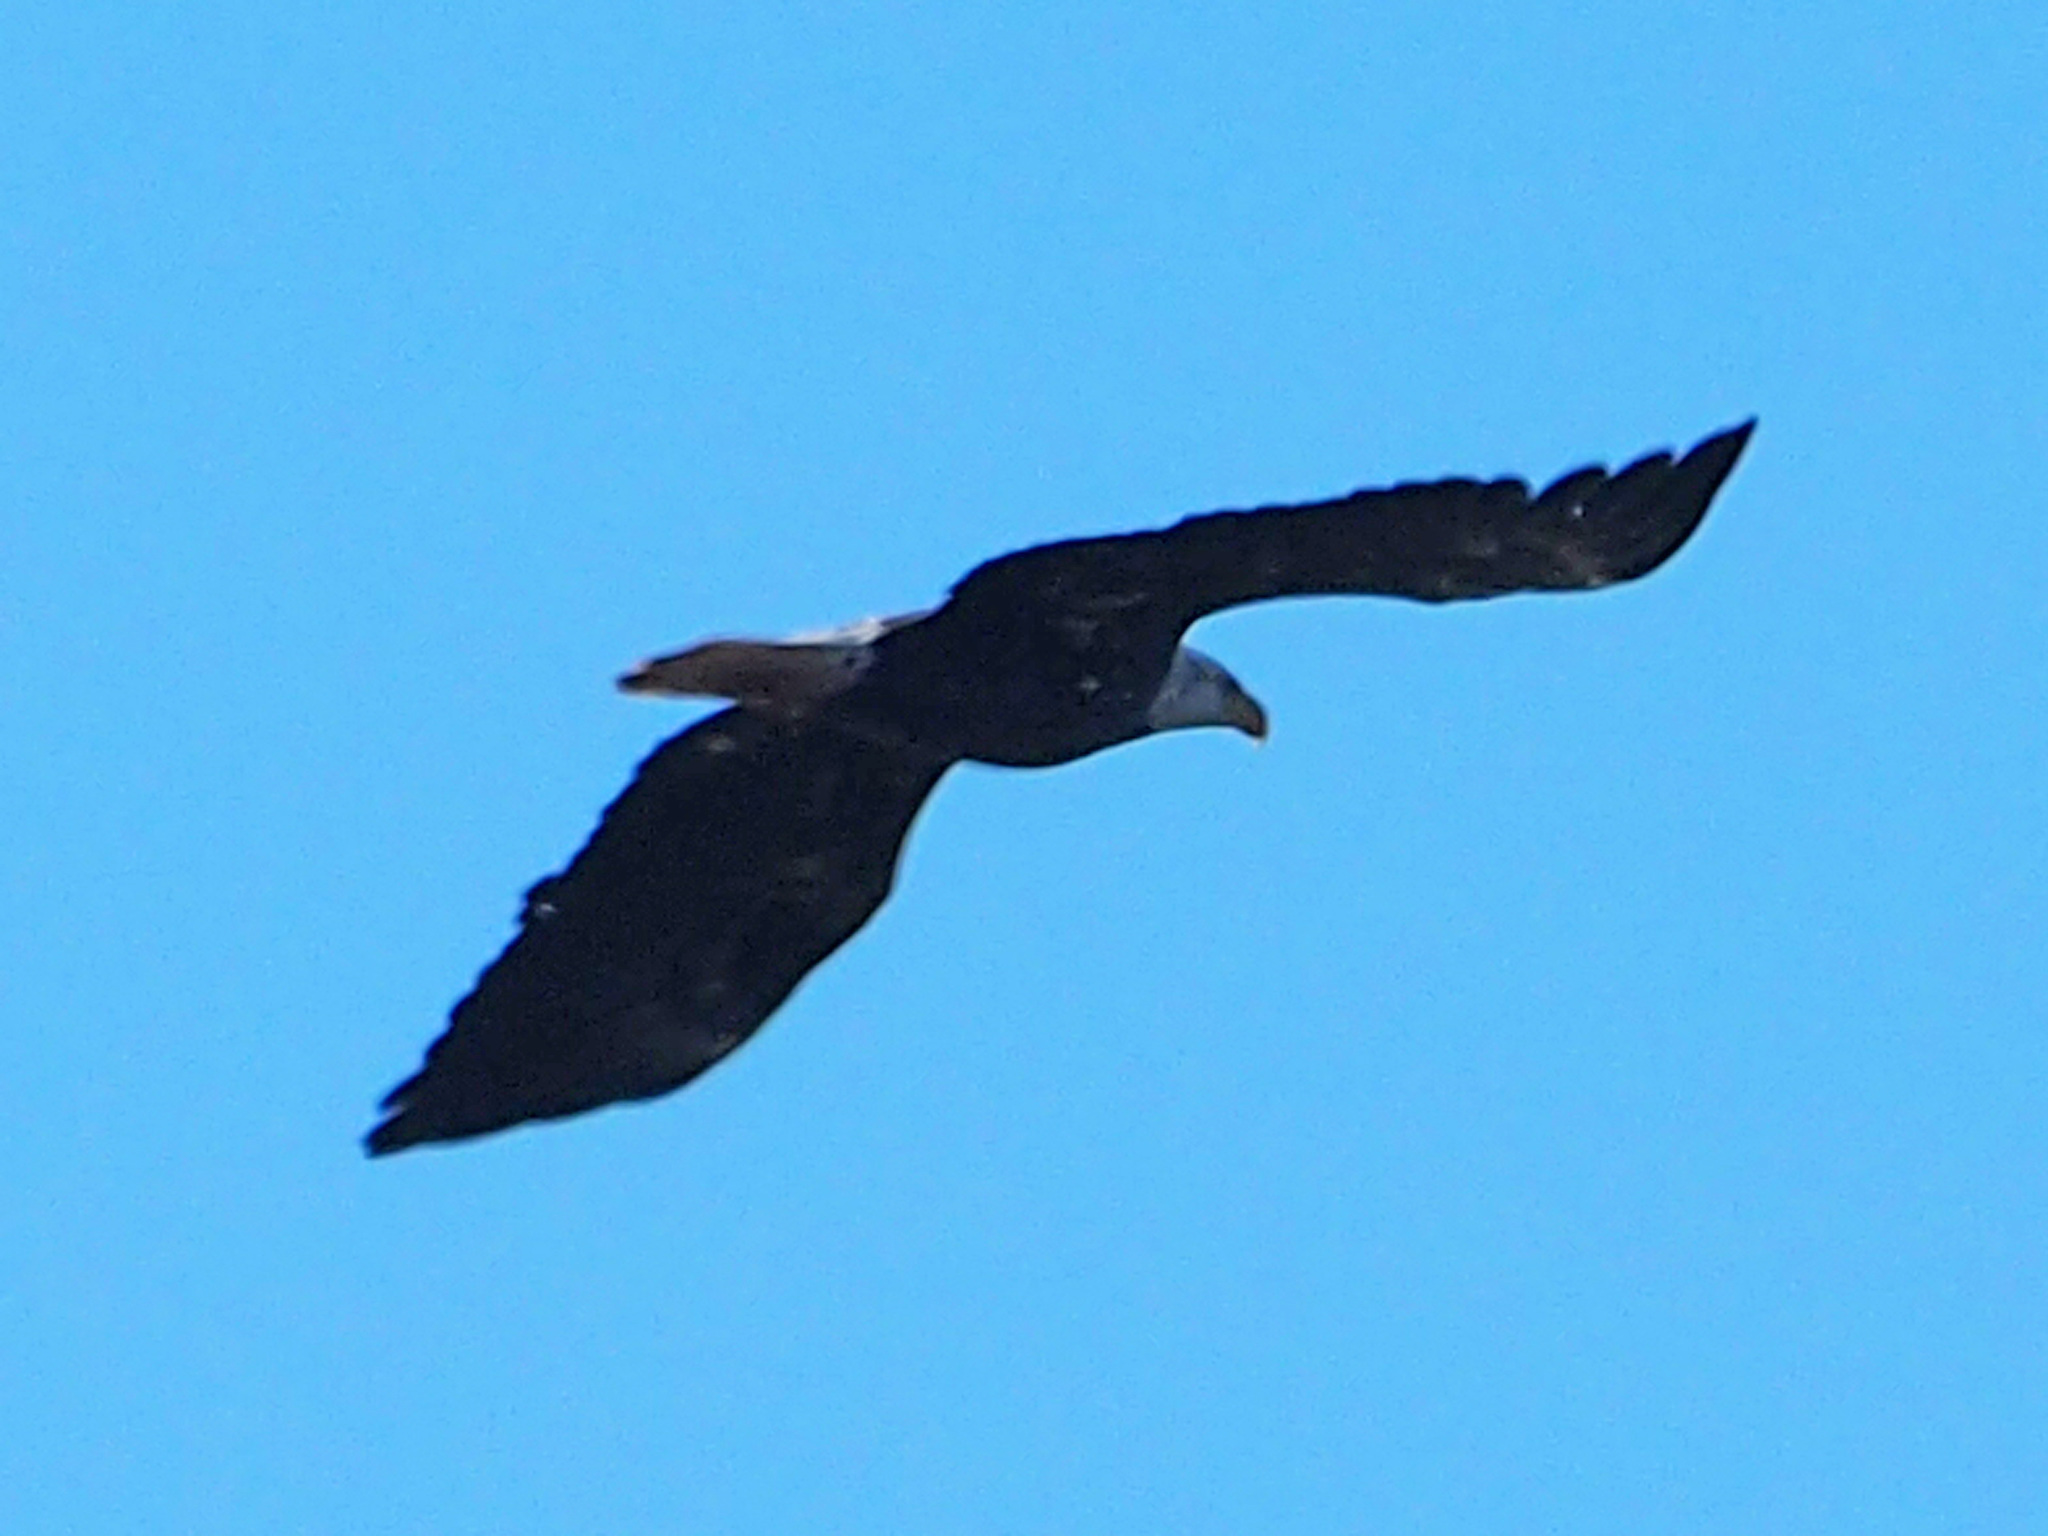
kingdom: Animalia
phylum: Chordata
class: Aves
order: Accipitriformes
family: Accipitridae
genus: Haliaeetus
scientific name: Haliaeetus leucocephalus
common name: Bald eagle
